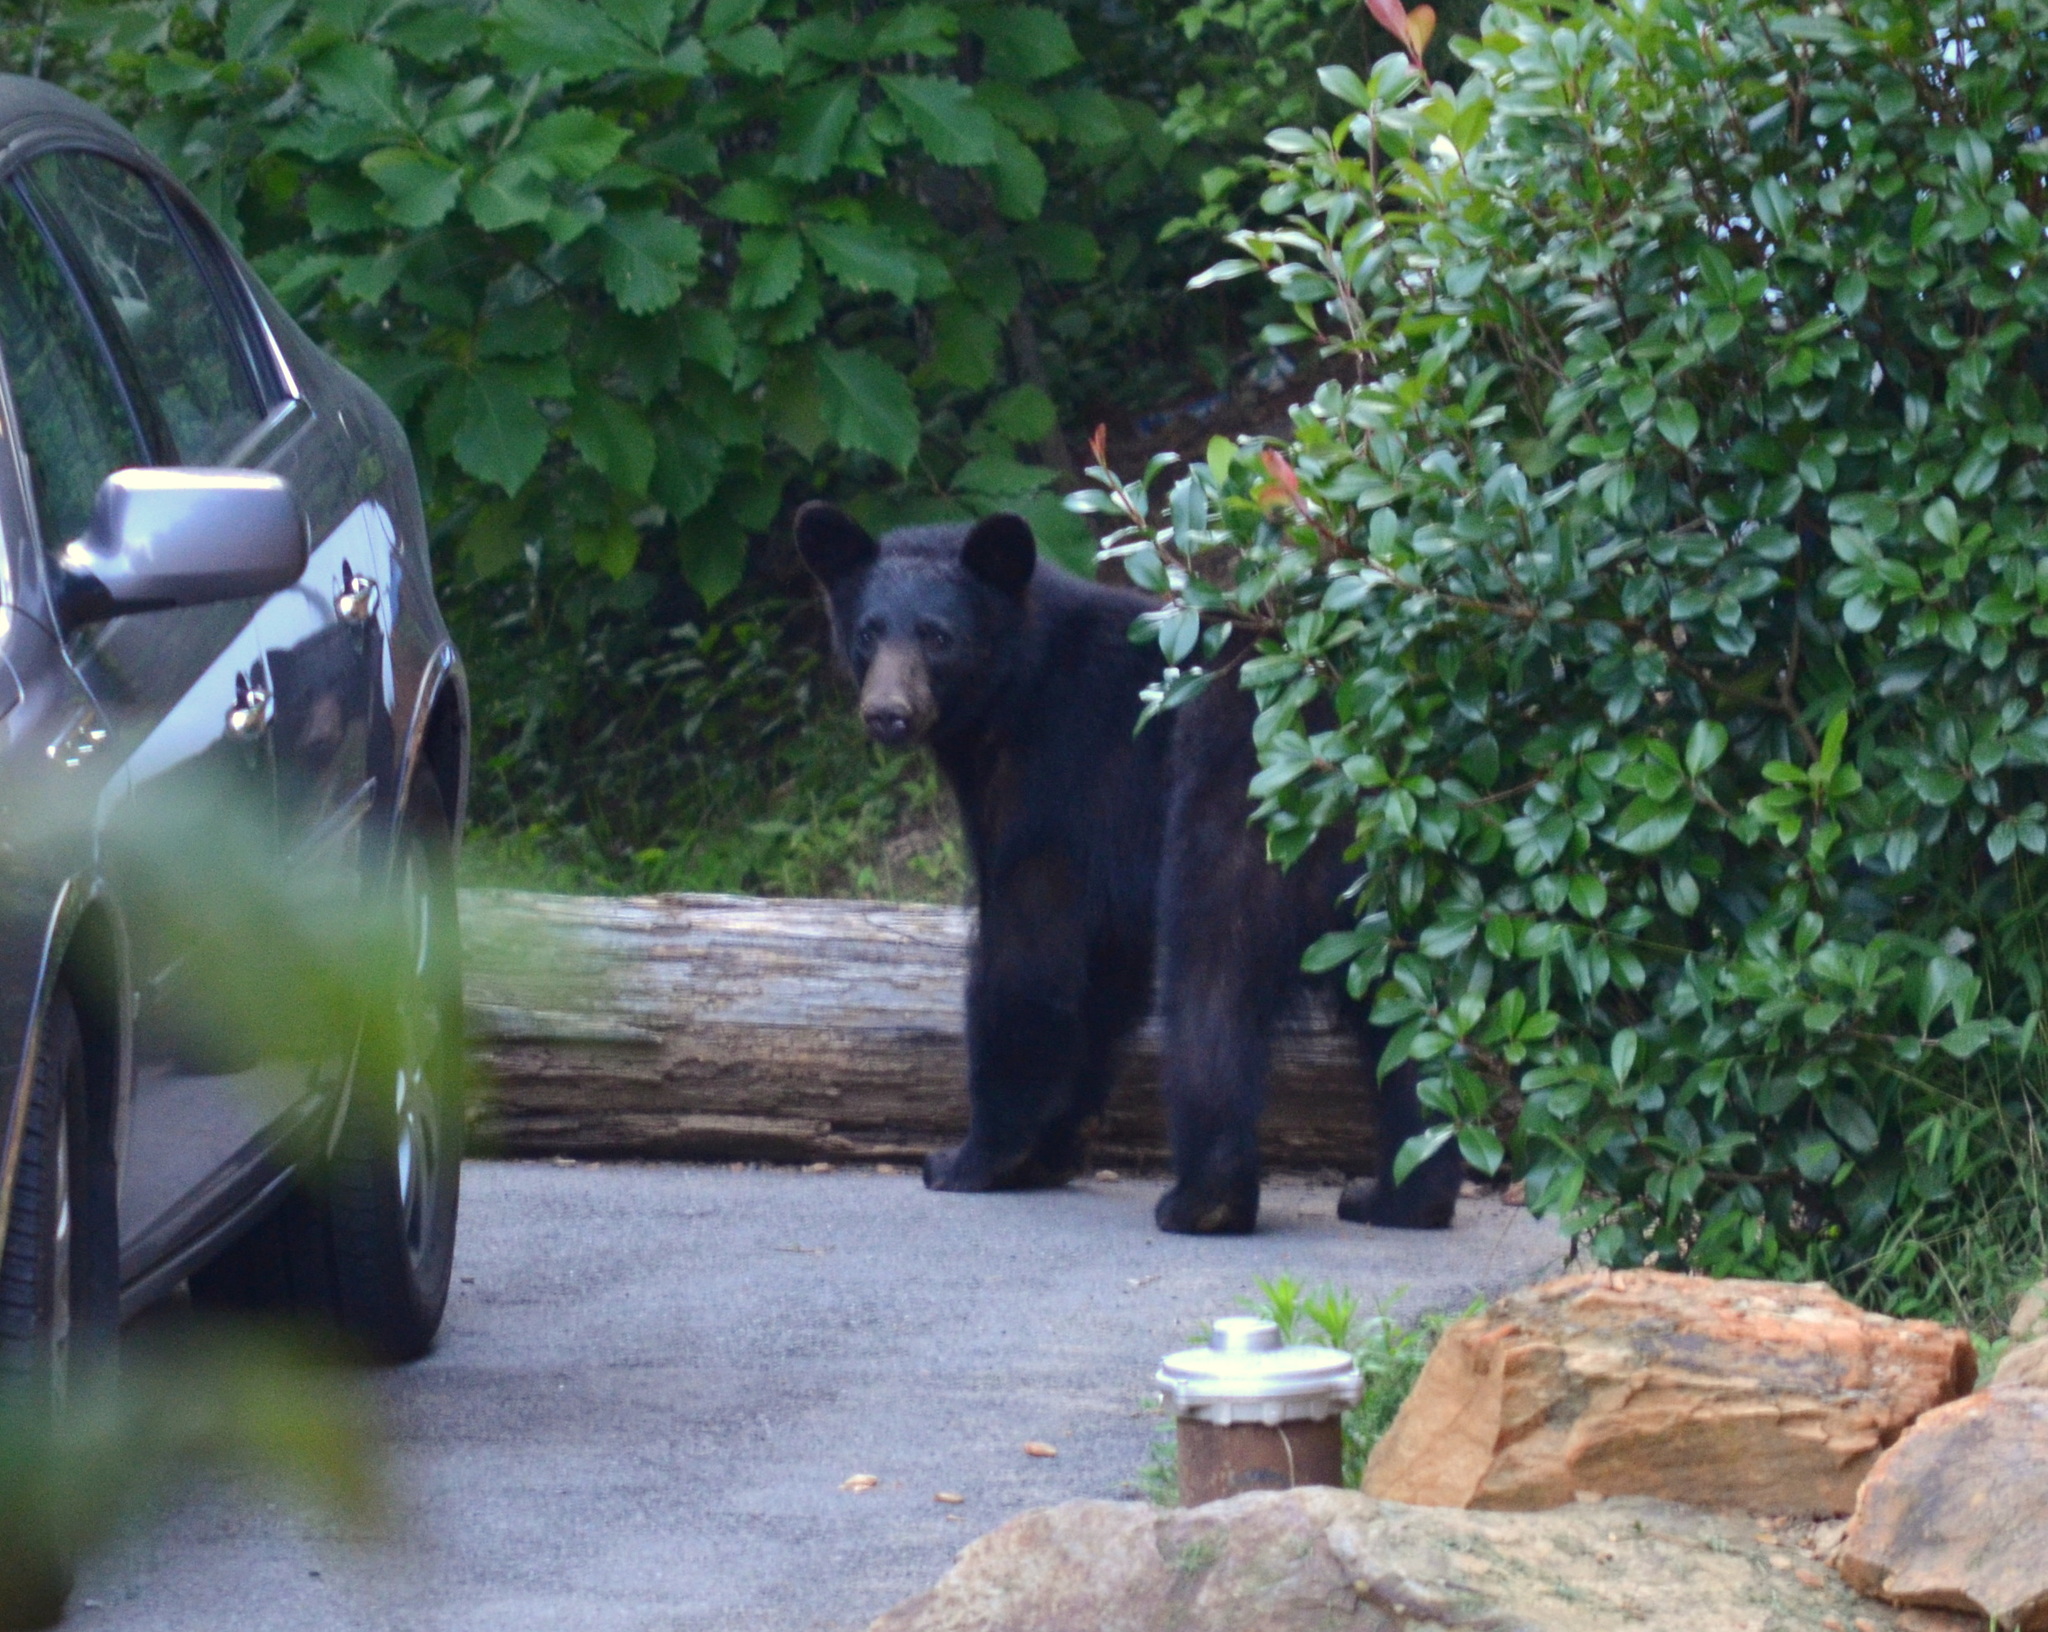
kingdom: Animalia
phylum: Chordata
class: Mammalia
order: Carnivora
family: Ursidae
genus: Ursus
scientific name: Ursus americanus
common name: American black bear
